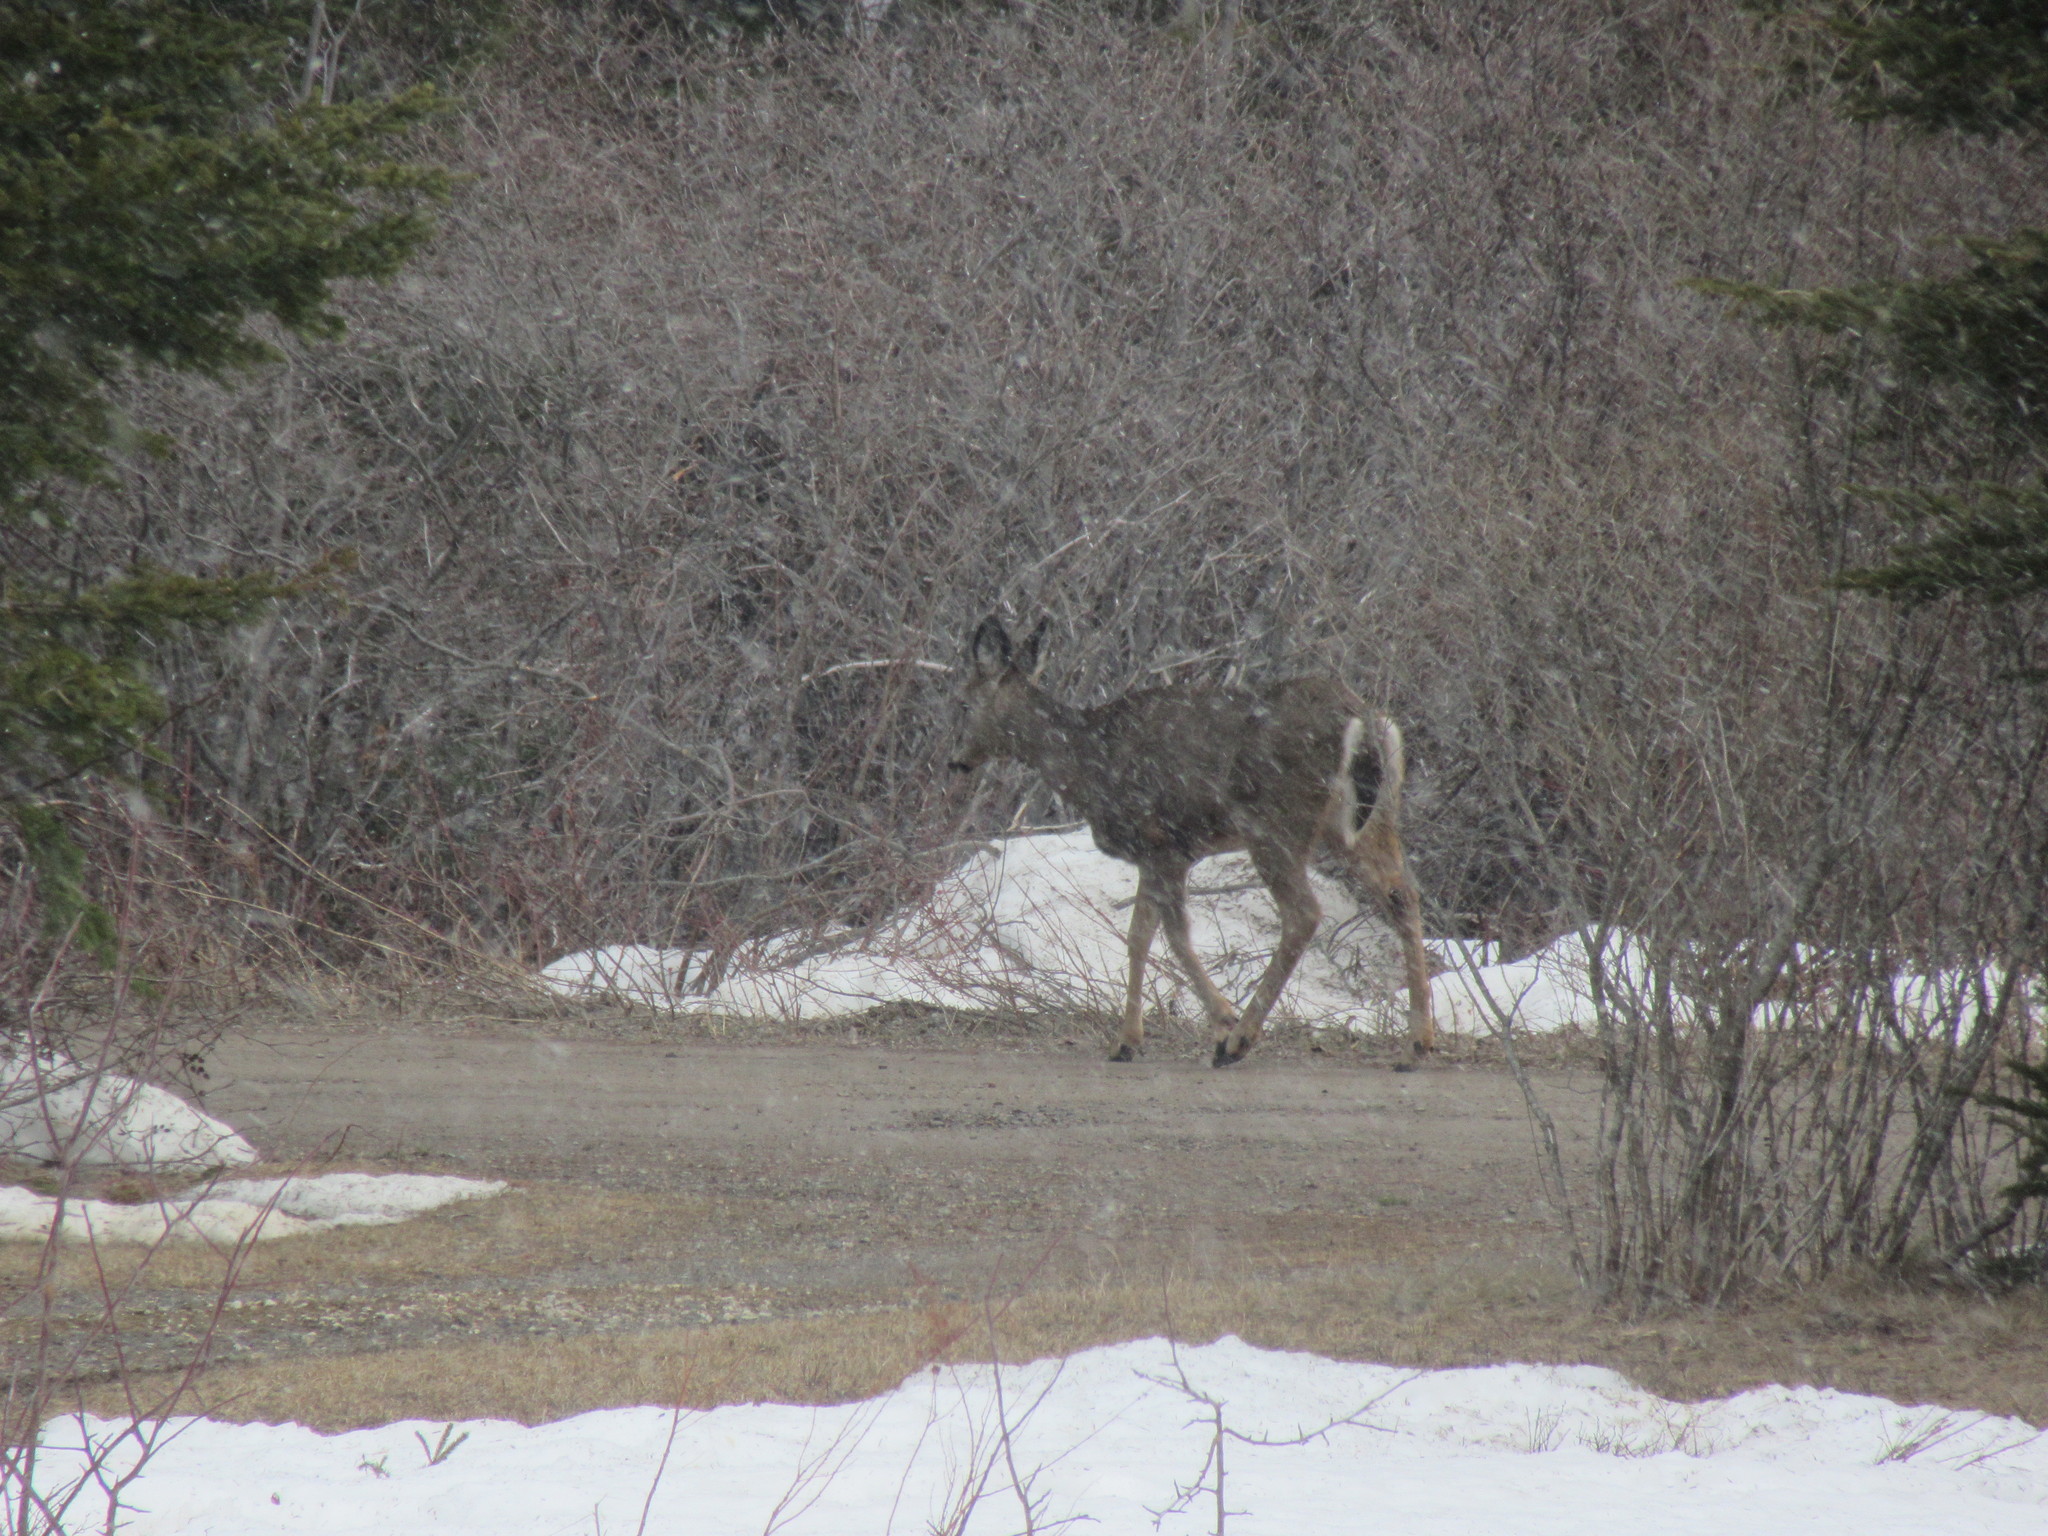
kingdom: Animalia
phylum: Chordata
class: Mammalia
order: Artiodactyla
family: Cervidae
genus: Odocoileus
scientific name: Odocoileus virginianus
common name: White-tailed deer
